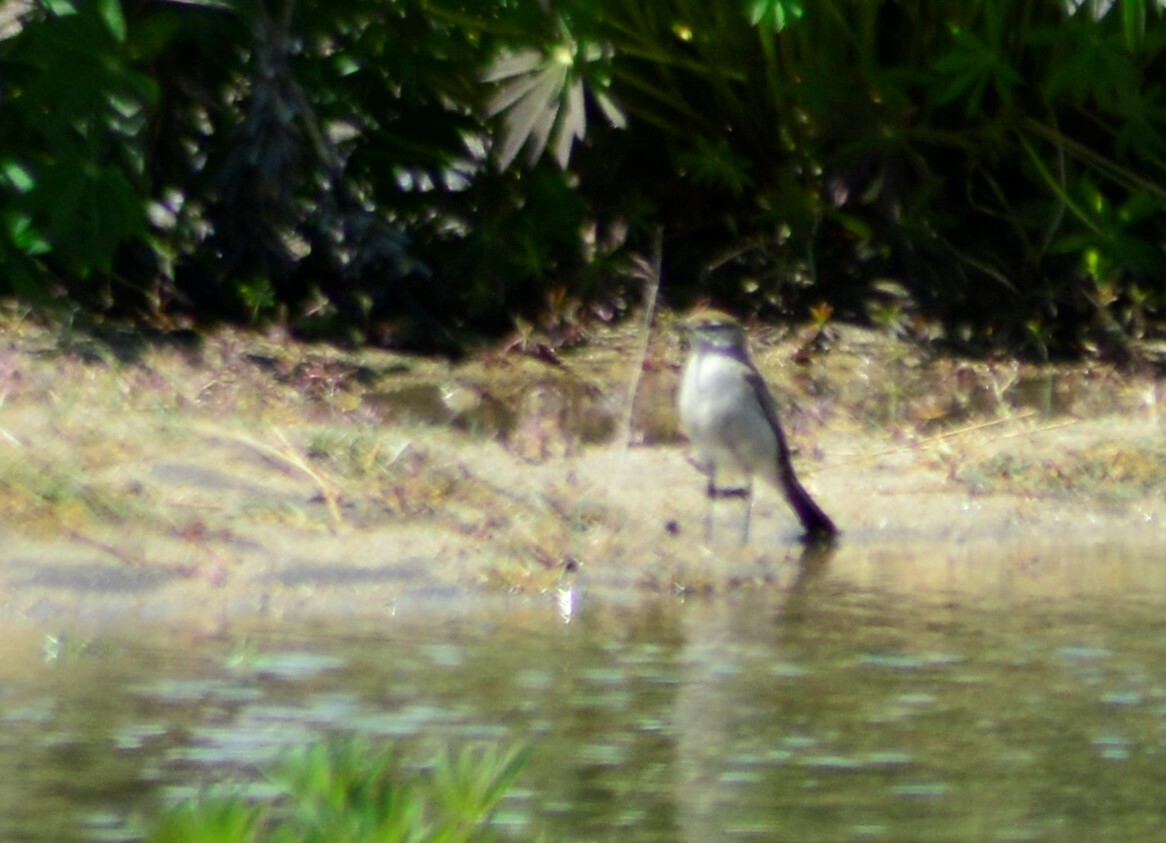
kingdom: Animalia
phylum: Chordata
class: Aves
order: Passeriformes
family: Tyrannidae
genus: Muscisaxicola
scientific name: Muscisaxicola albilora
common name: White-browed ground tyrant
